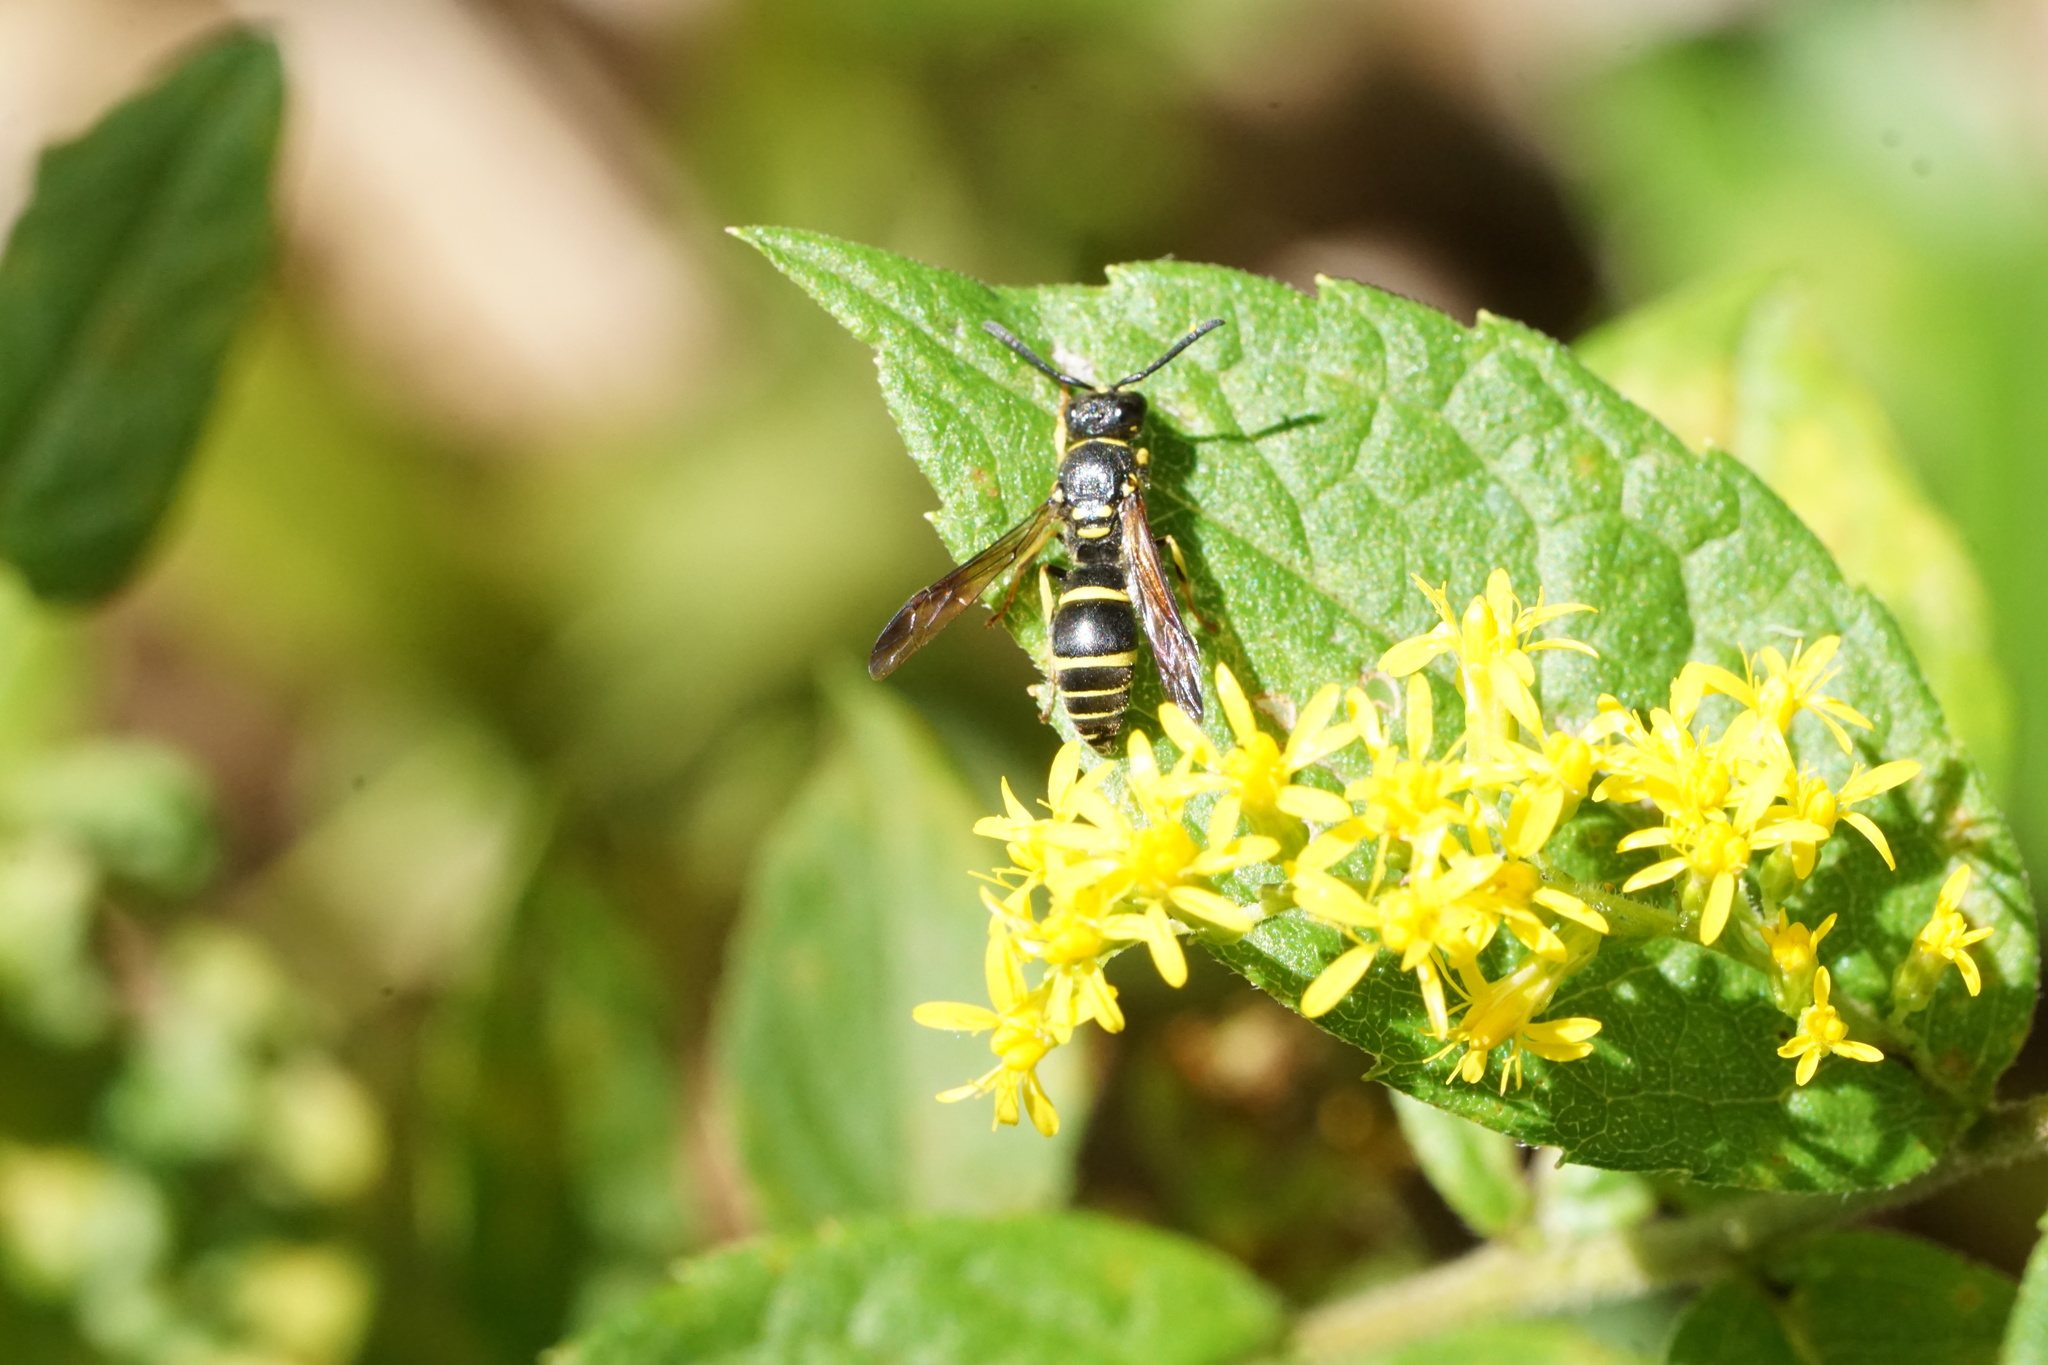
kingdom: Animalia
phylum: Arthropoda
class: Insecta
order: Hymenoptera
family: Vespidae
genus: Ancistrocerus
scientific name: Ancistrocerus adiabatus
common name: Bramble mason wasp
